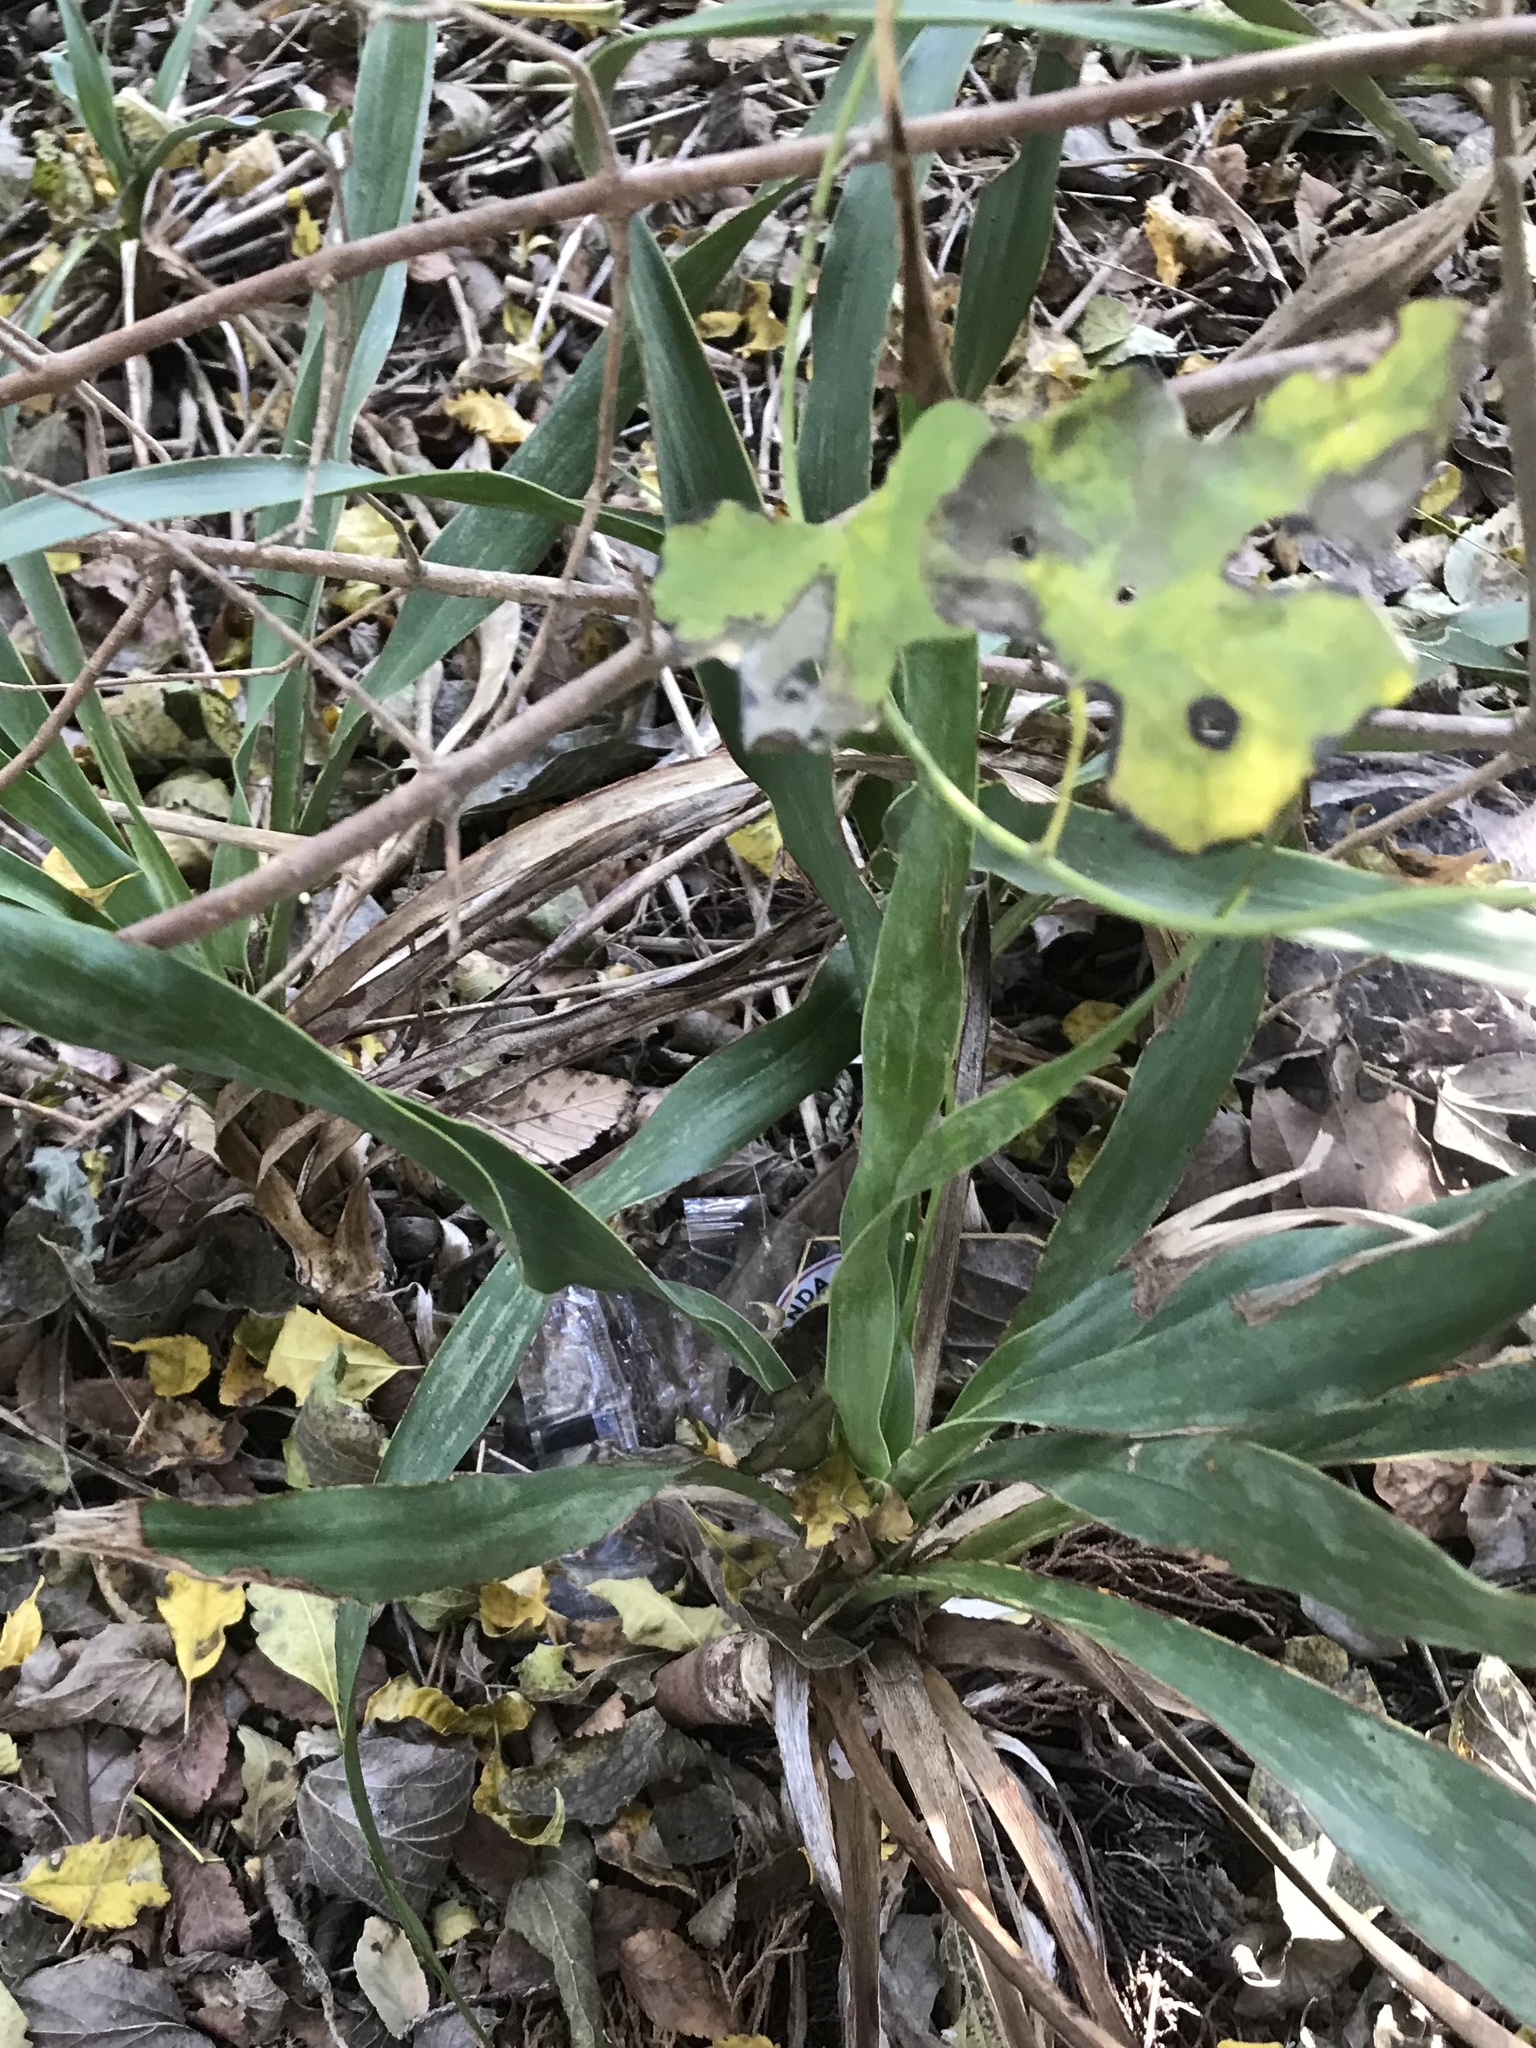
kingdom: Plantae
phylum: Tracheophyta
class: Liliopsida
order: Asparagales
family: Asparagaceae
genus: Yucca
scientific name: Yucca rupicola
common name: Twisted-leaf spanish-dagger
